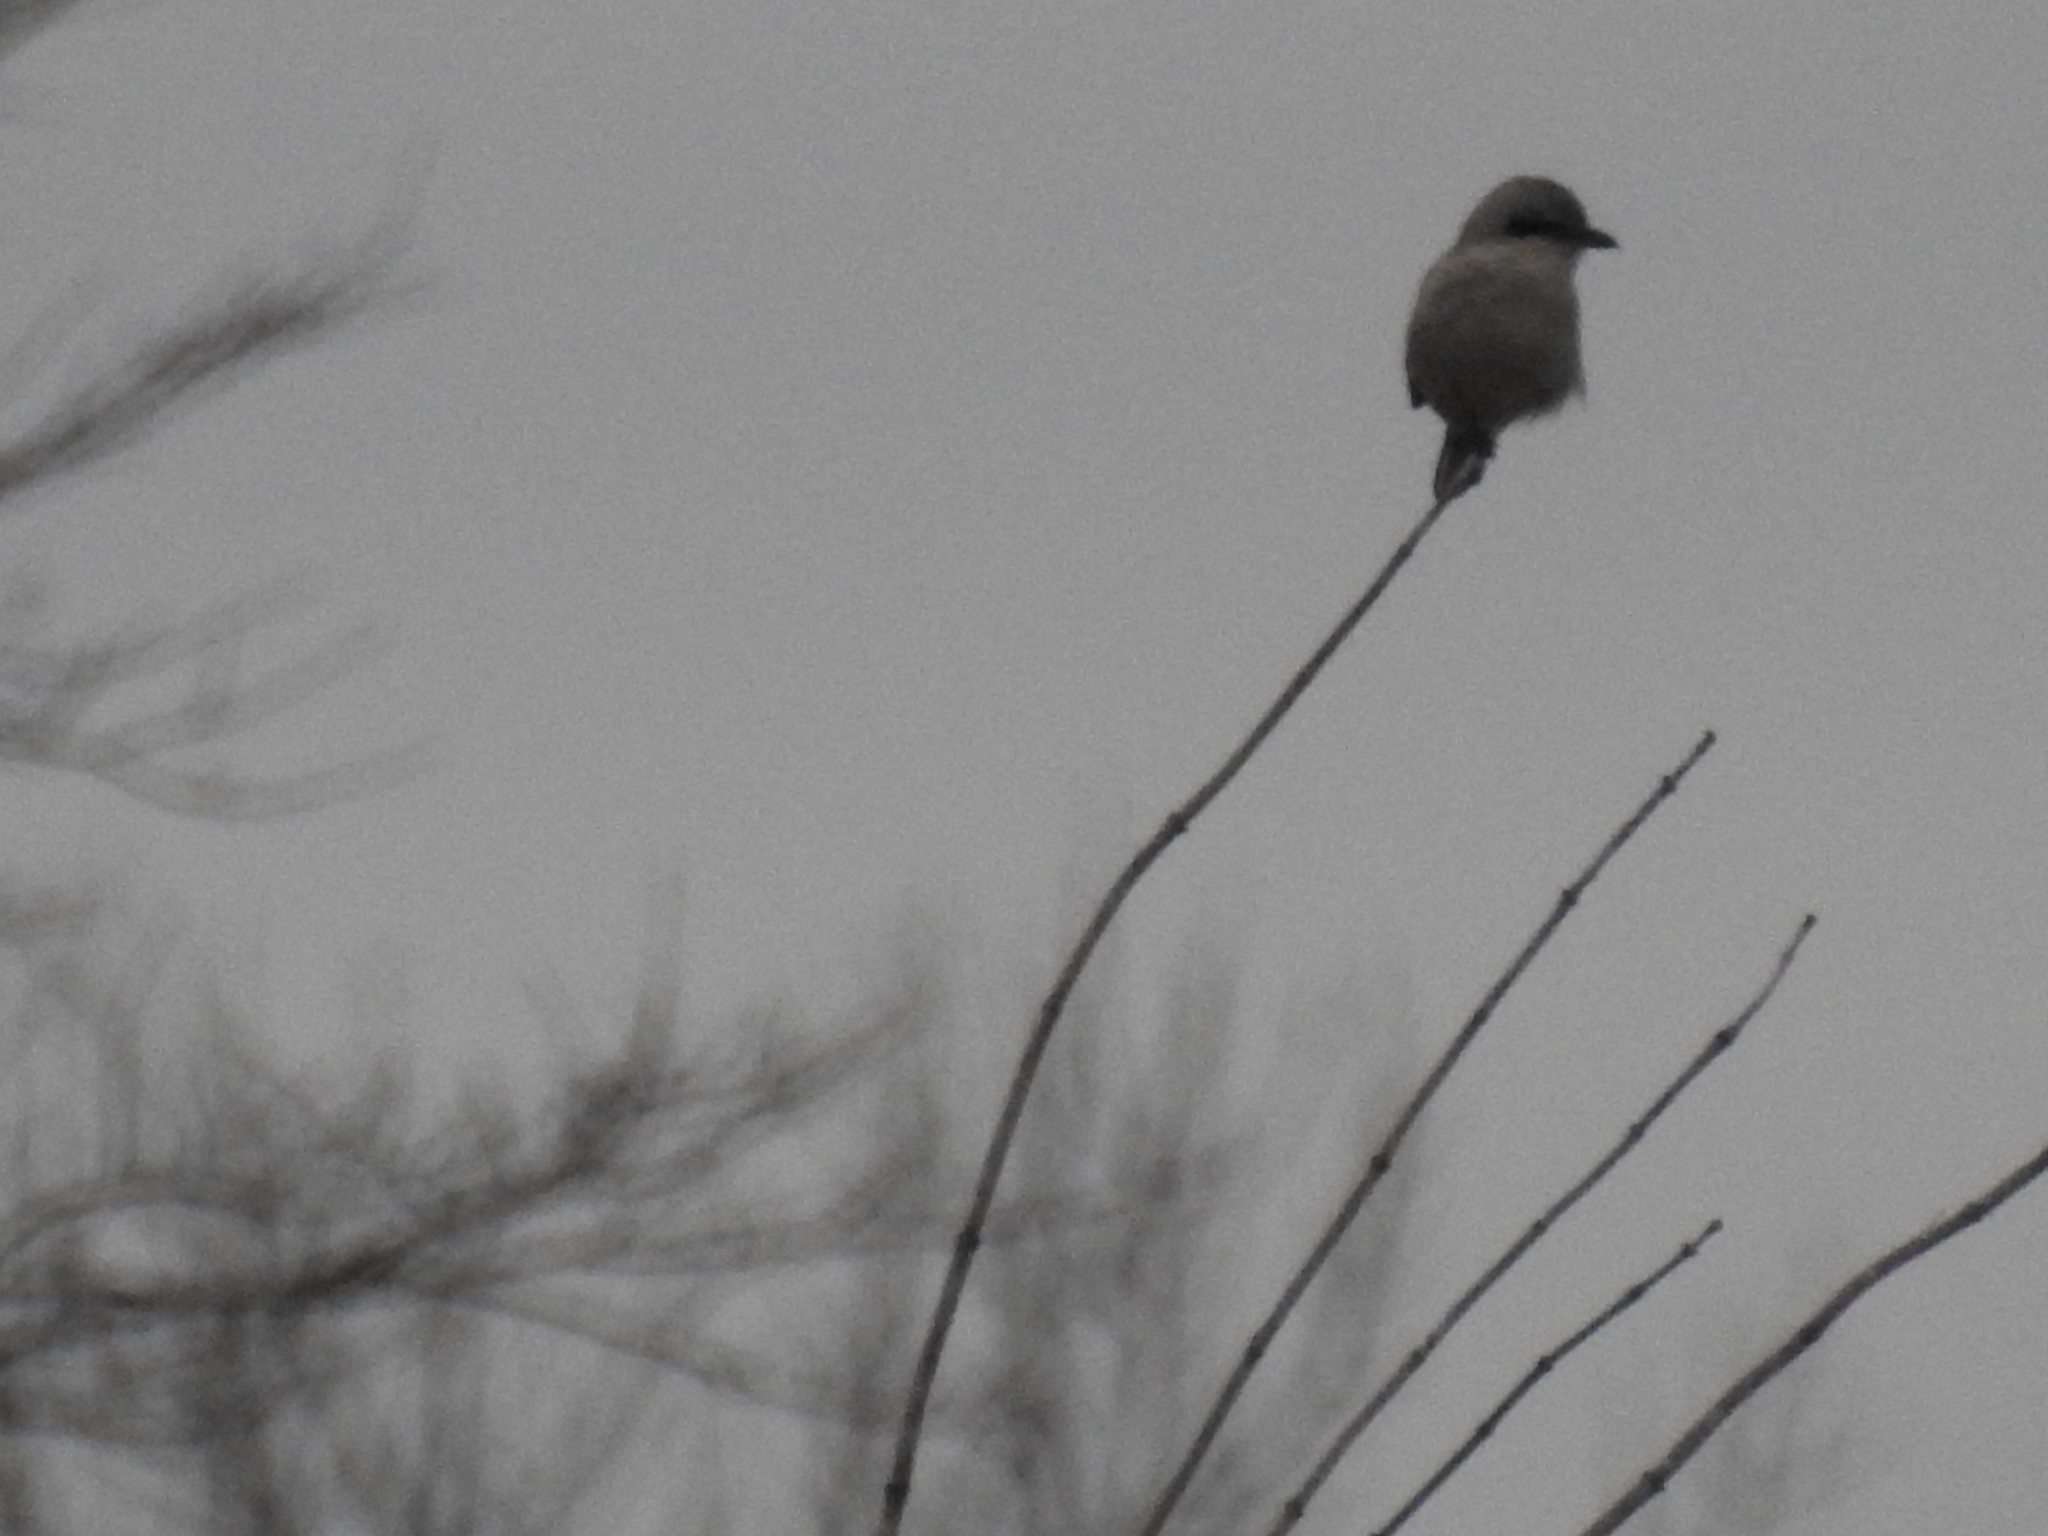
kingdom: Animalia
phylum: Chordata
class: Aves
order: Passeriformes
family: Laniidae
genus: Lanius
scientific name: Lanius borealis
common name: Northern shrike
